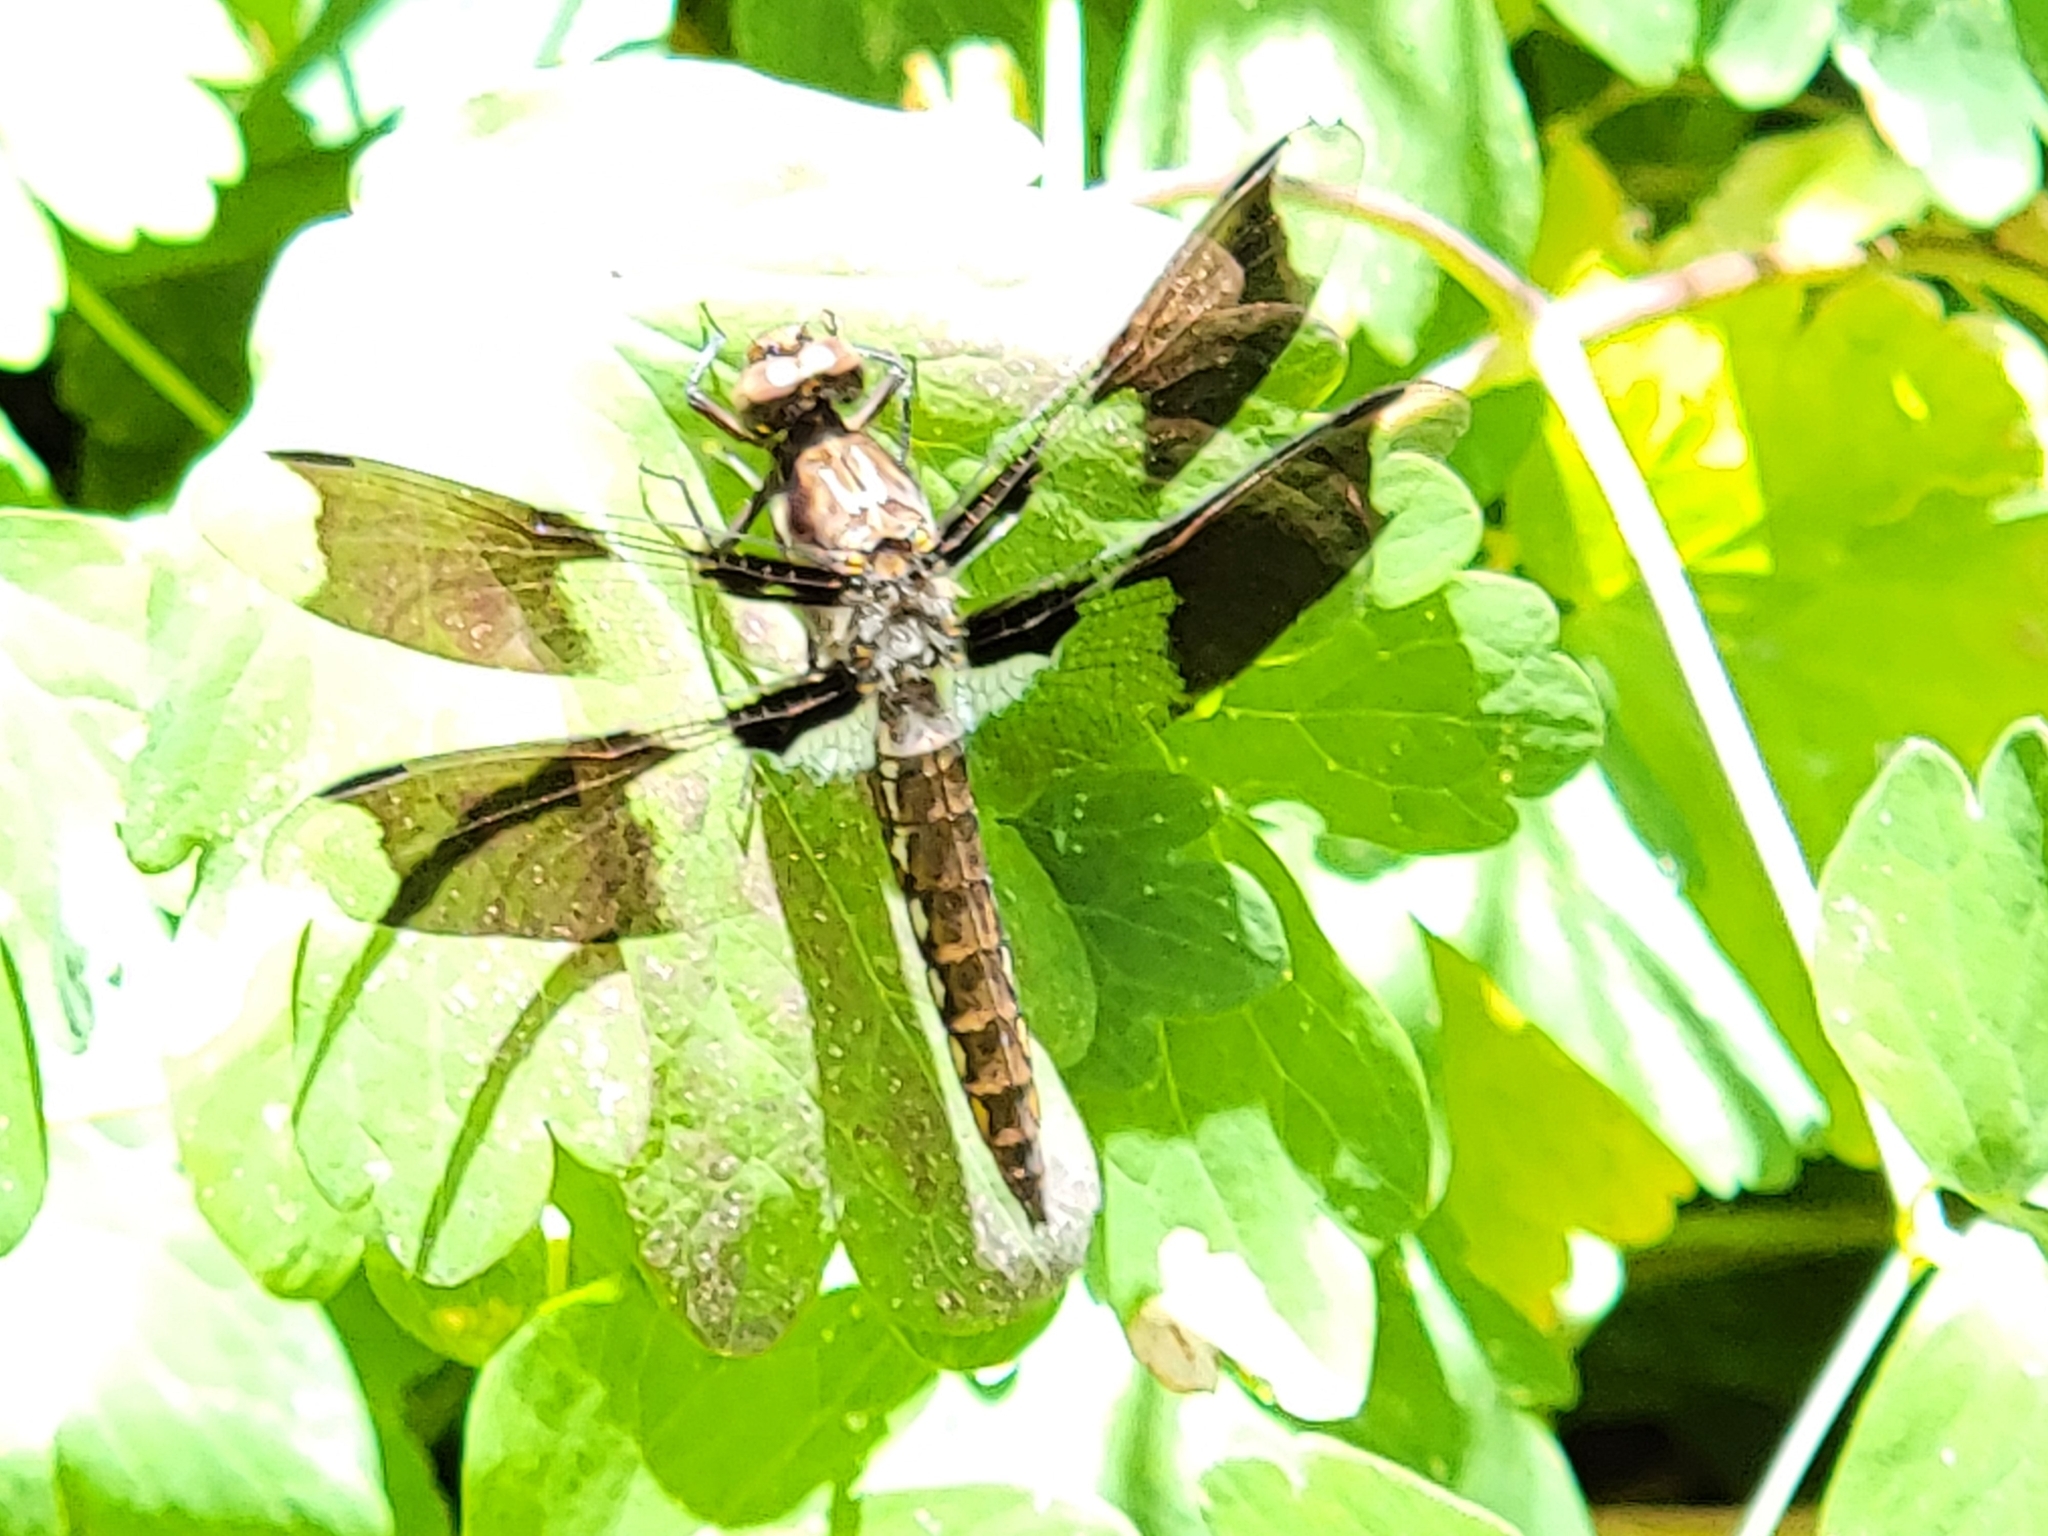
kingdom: Animalia
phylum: Arthropoda
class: Insecta
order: Odonata
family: Libellulidae
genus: Plathemis
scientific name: Plathemis lydia
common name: Common whitetail
